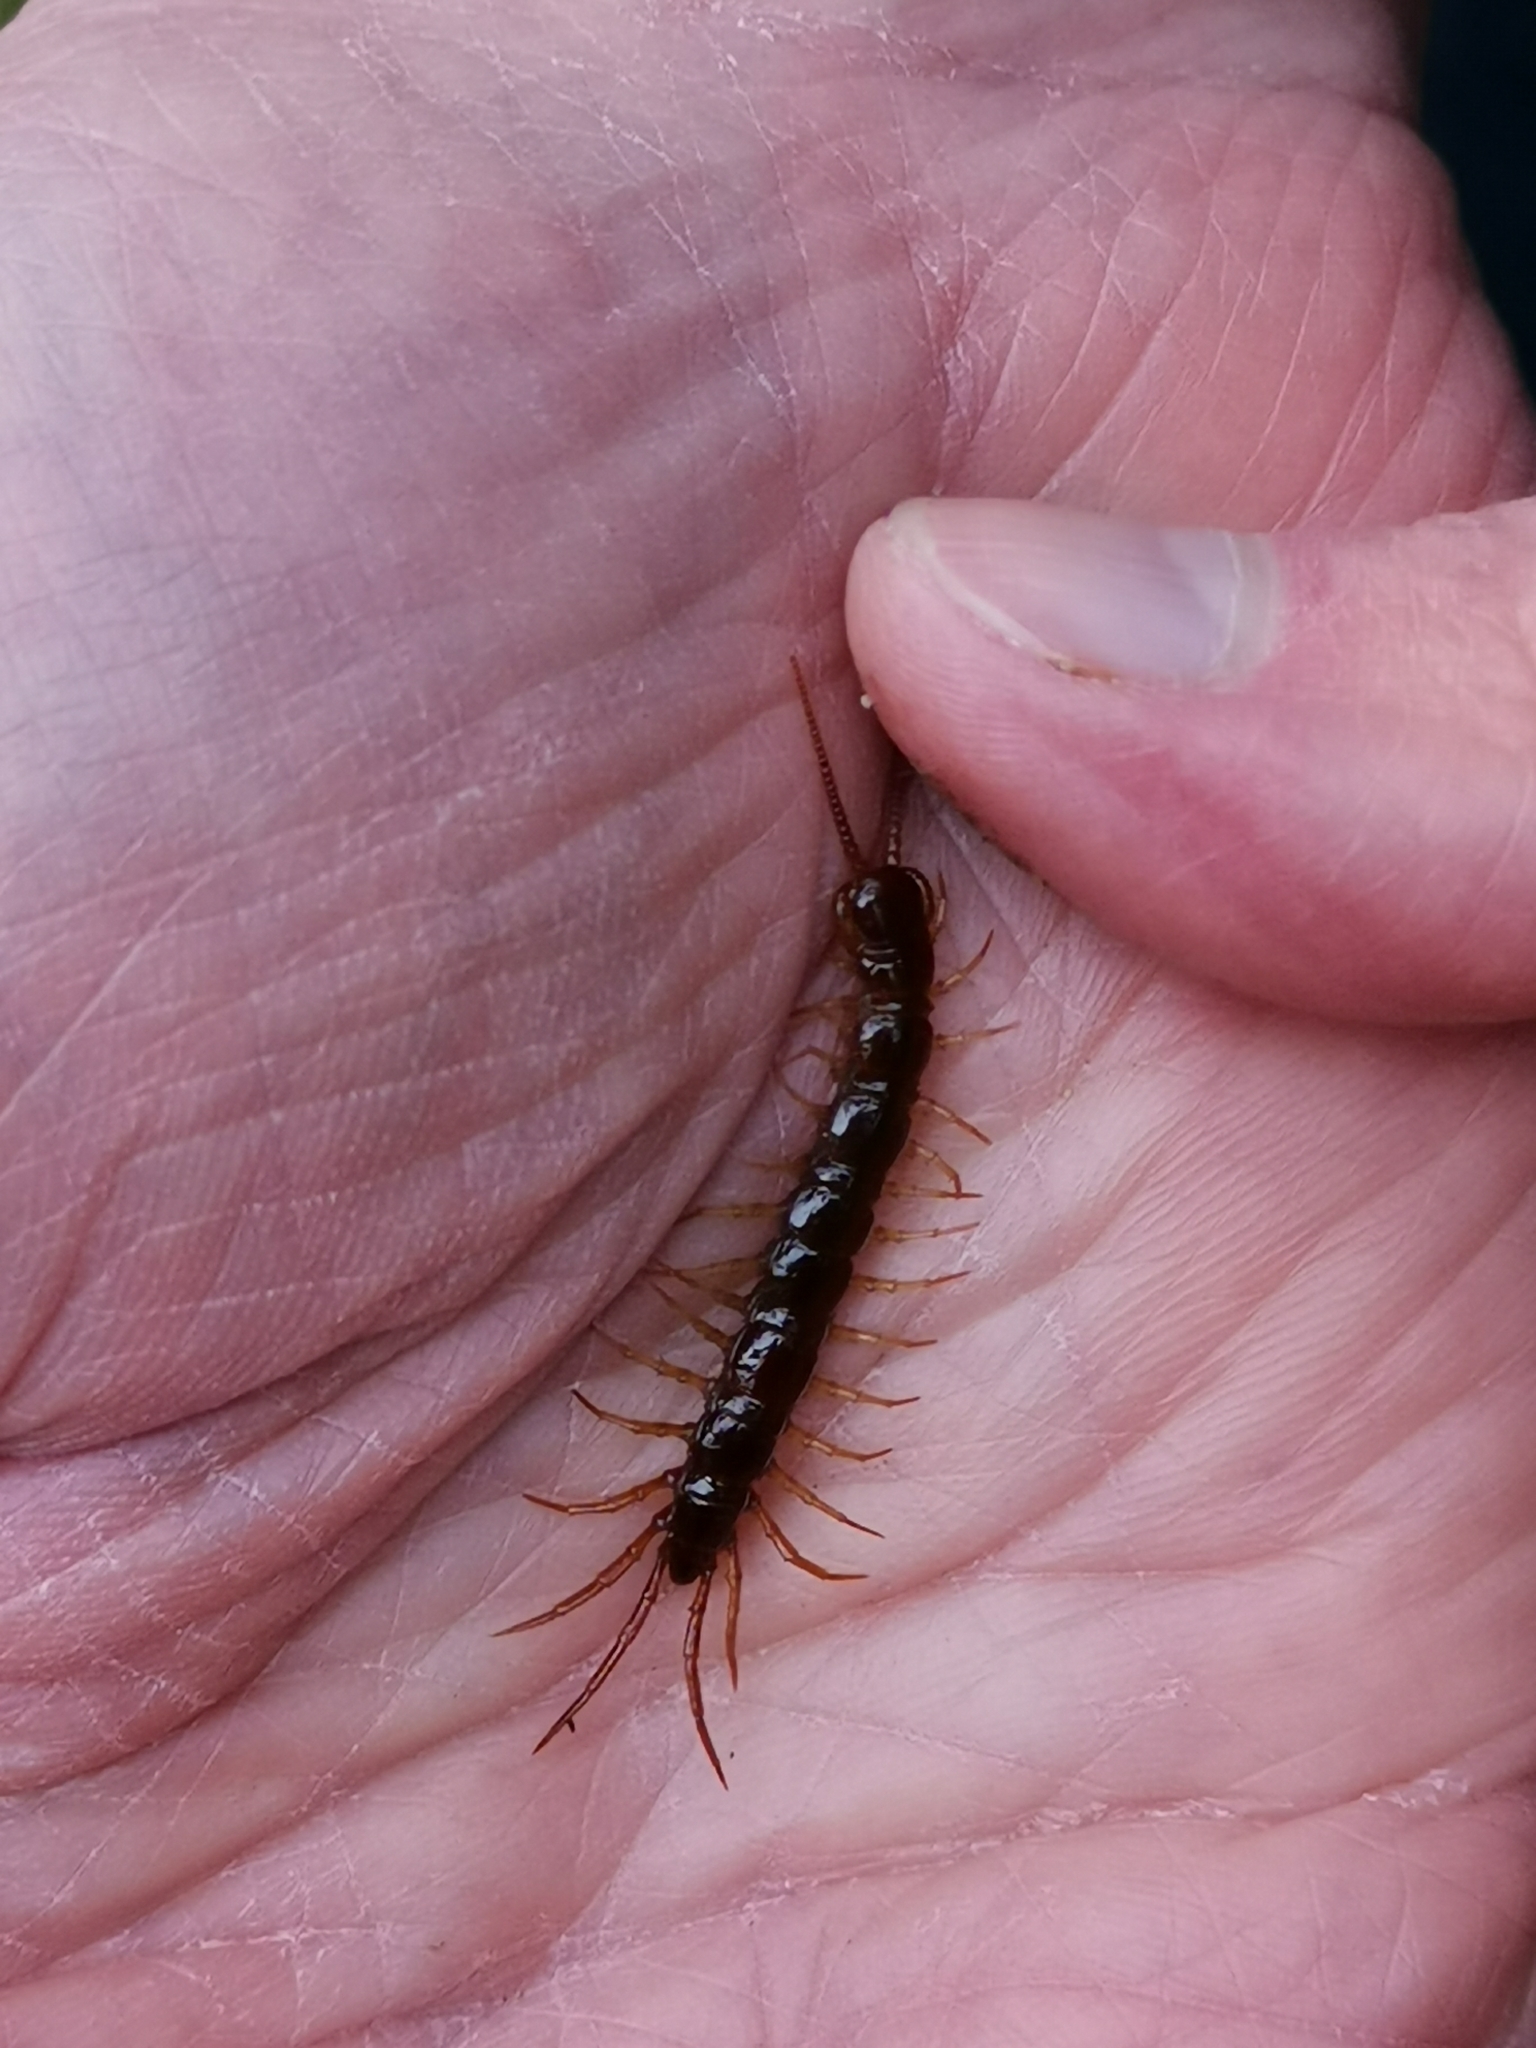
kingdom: Animalia
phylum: Arthropoda
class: Chilopoda
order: Lithobiomorpha
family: Lithobiidae
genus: Lithobius
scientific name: Lithobius forficatus
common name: Centipede
